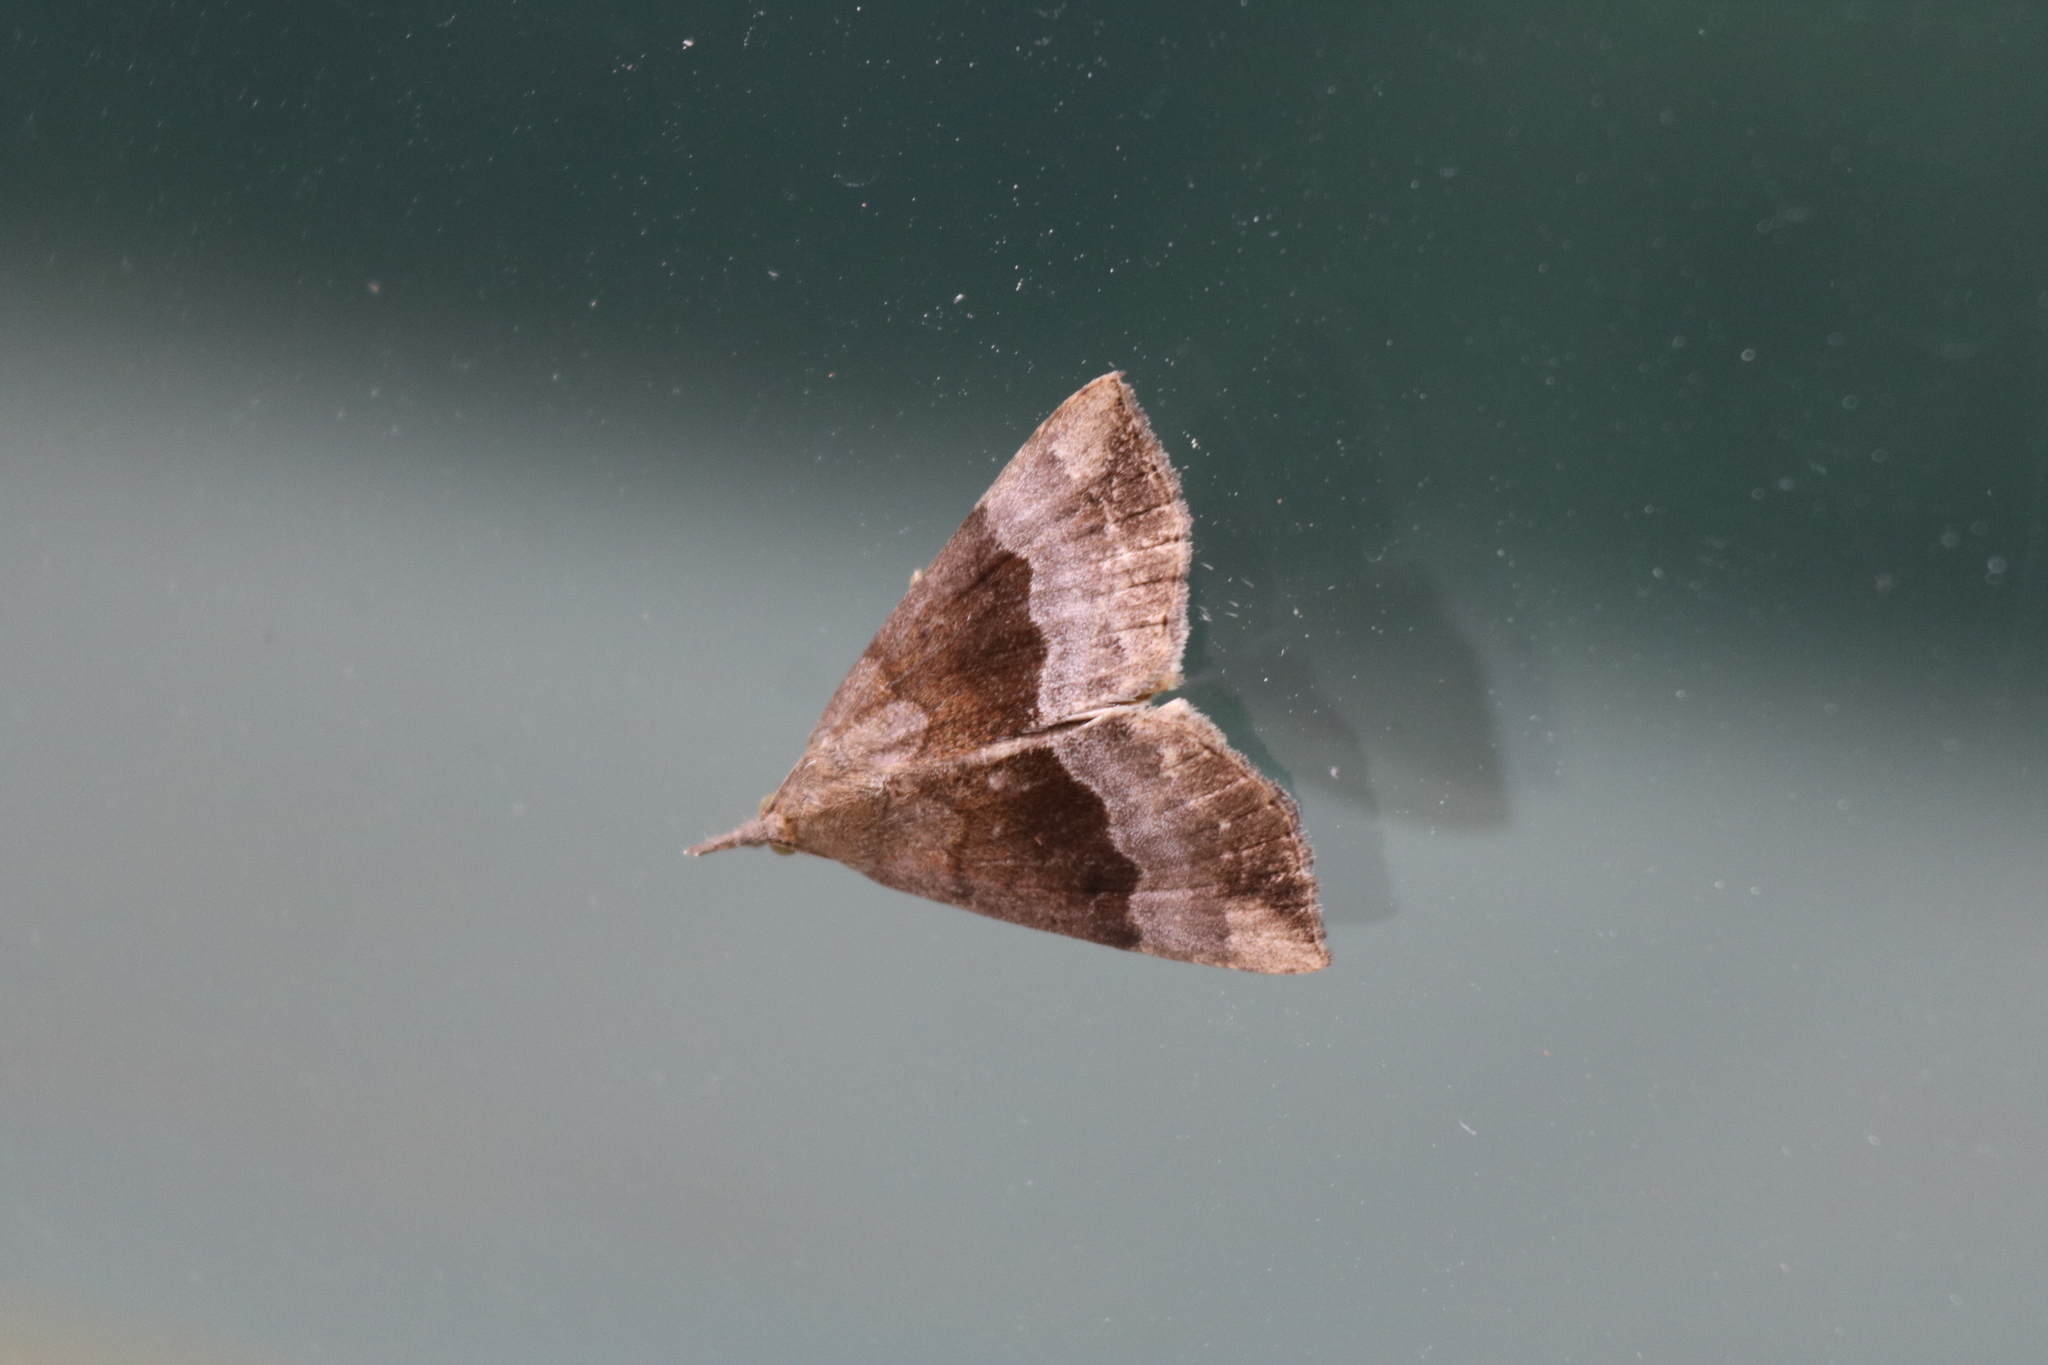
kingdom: Animalia
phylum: Arthropoda
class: Insecta
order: Lepidoptera
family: Erebidae
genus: Hypena
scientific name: Hypena madefactalis
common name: Gray-edged snout
